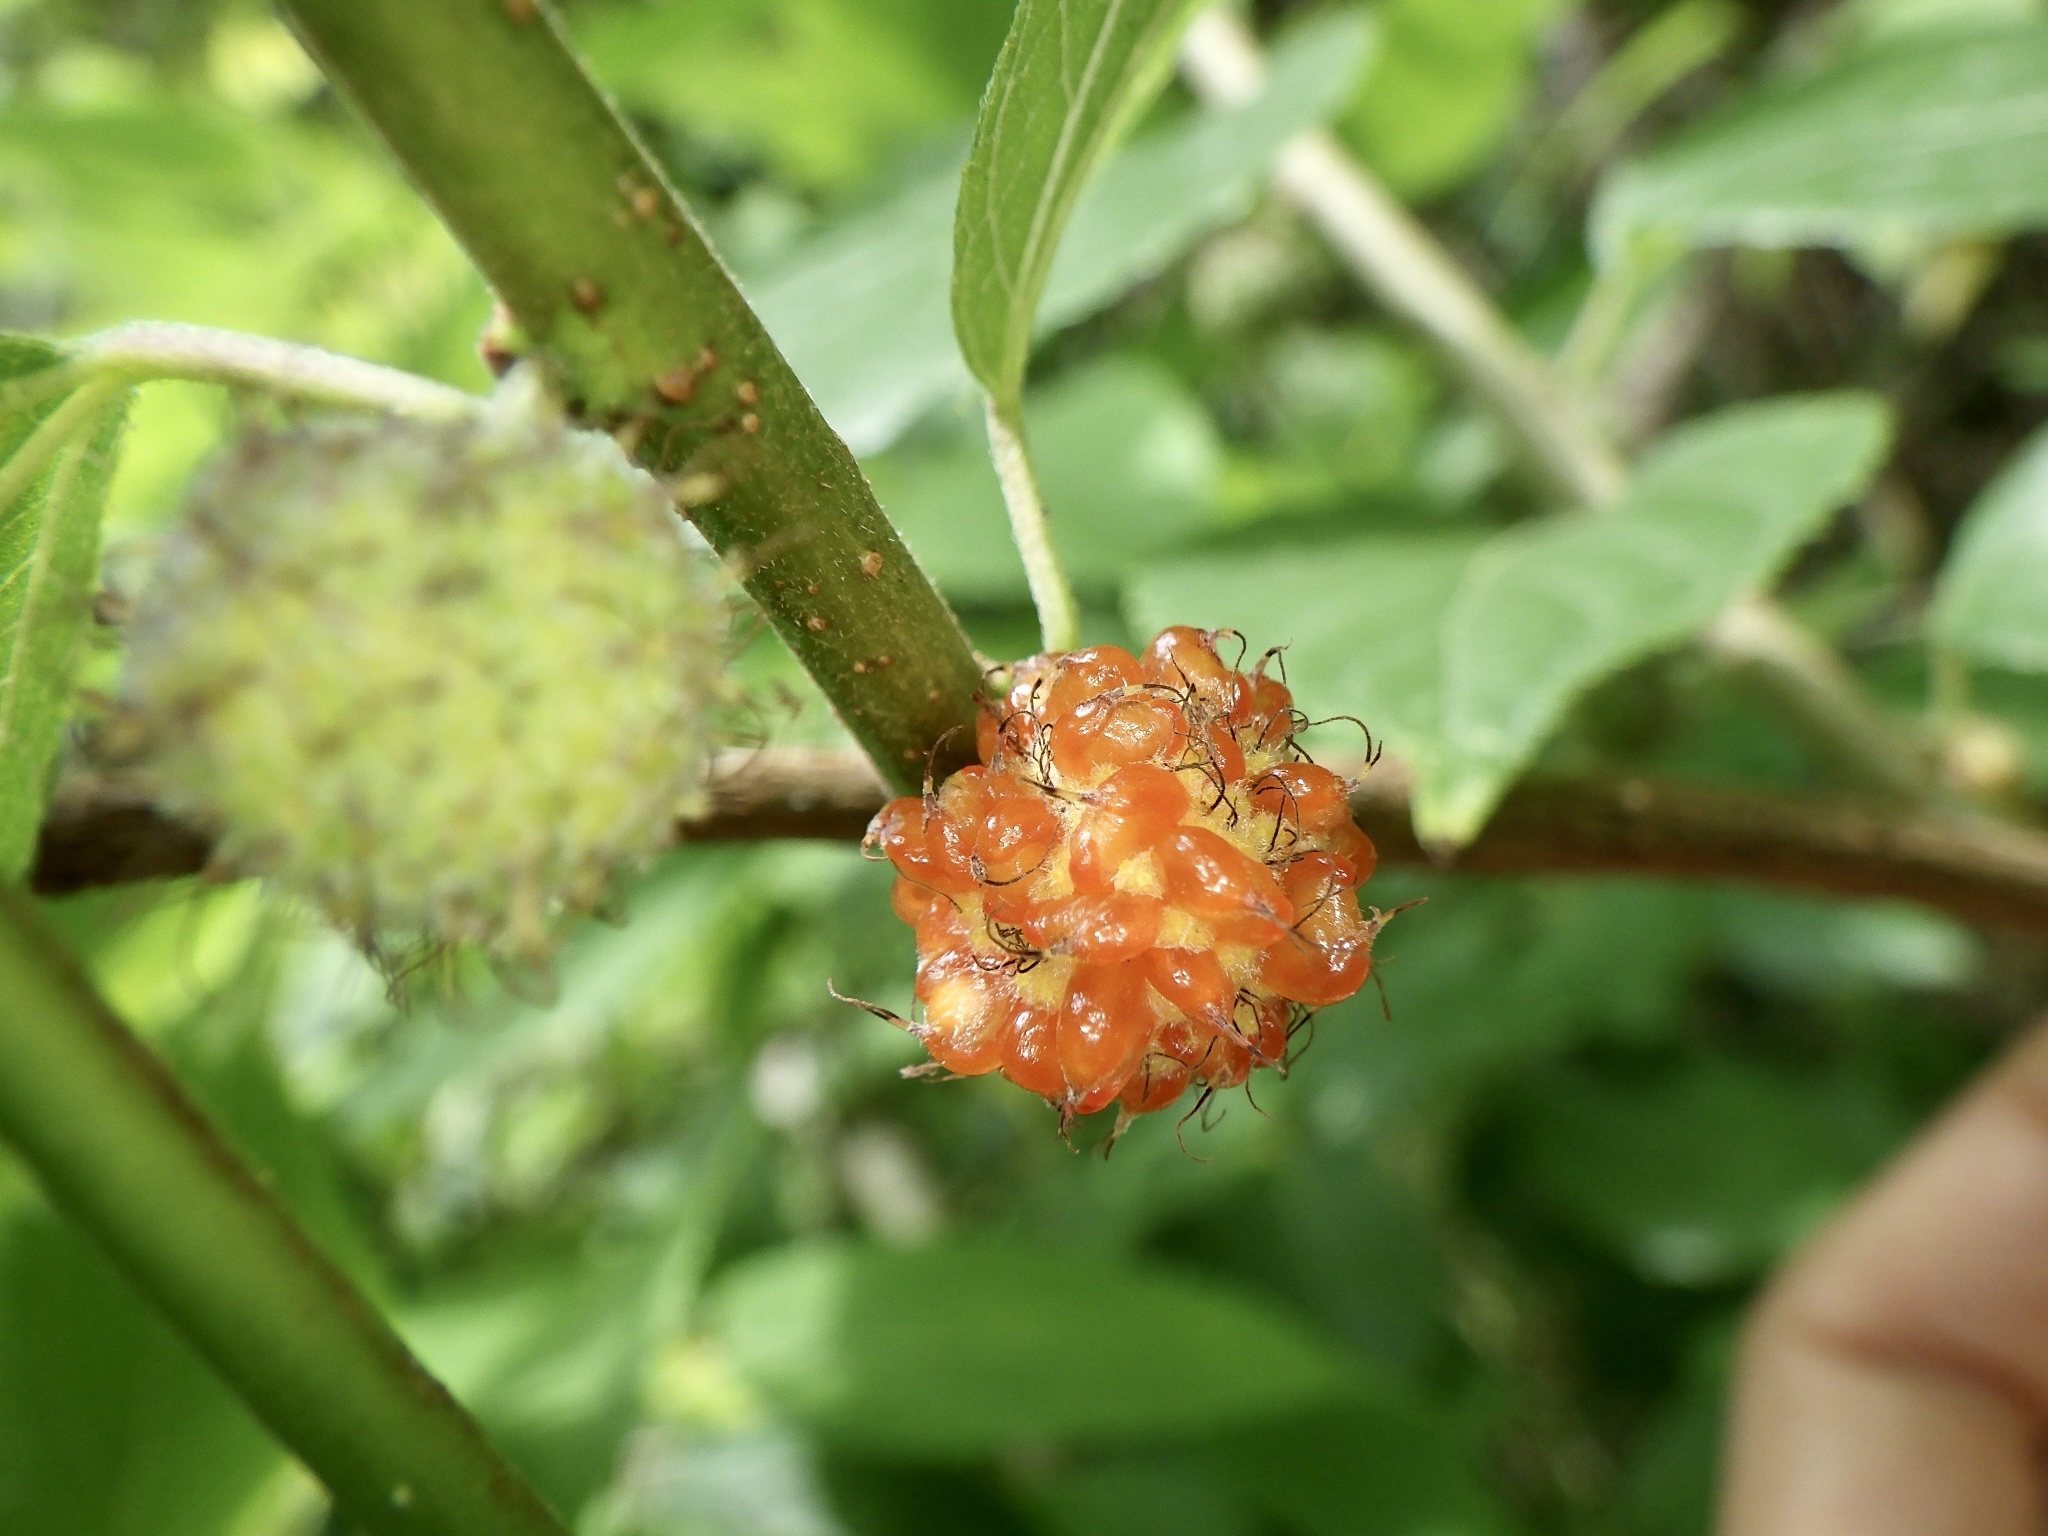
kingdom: Plantae
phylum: Tracheophyta
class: Magnoliopsida
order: Rosales
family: Moraceae
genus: Broussonetia
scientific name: Broussonetia monoica
